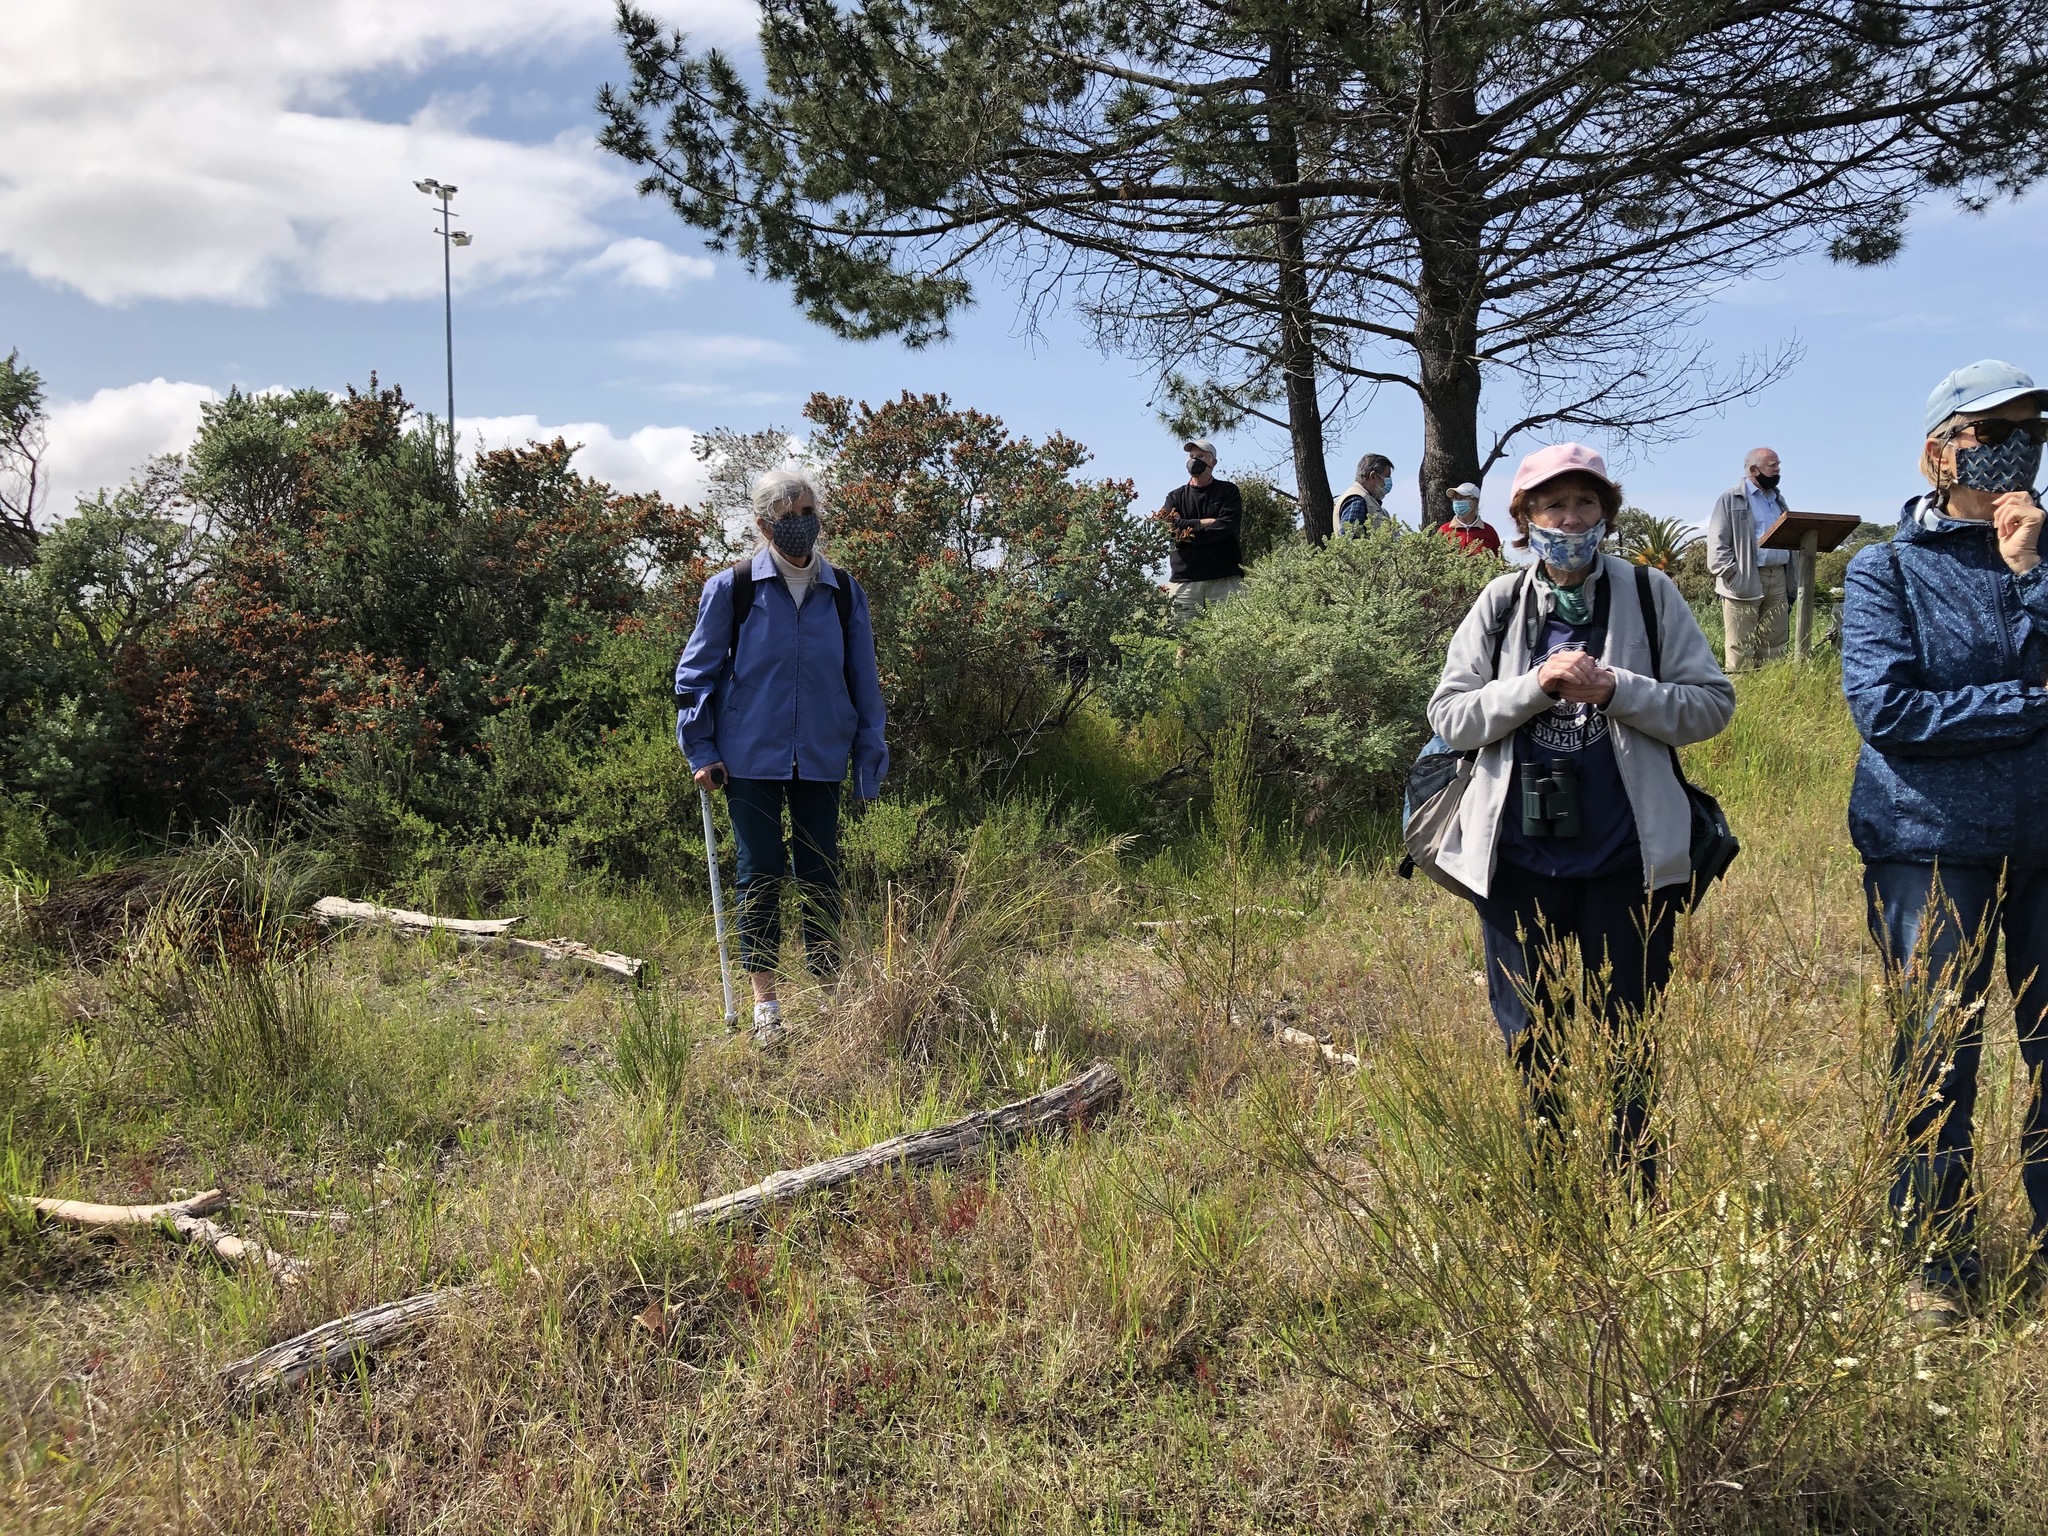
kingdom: Plantae
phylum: Tracheophyta
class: Magnoliopsida
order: Proteales
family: Proteaceae
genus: Protea
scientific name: Protea scolymocephala
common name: Thistle sugarbush
